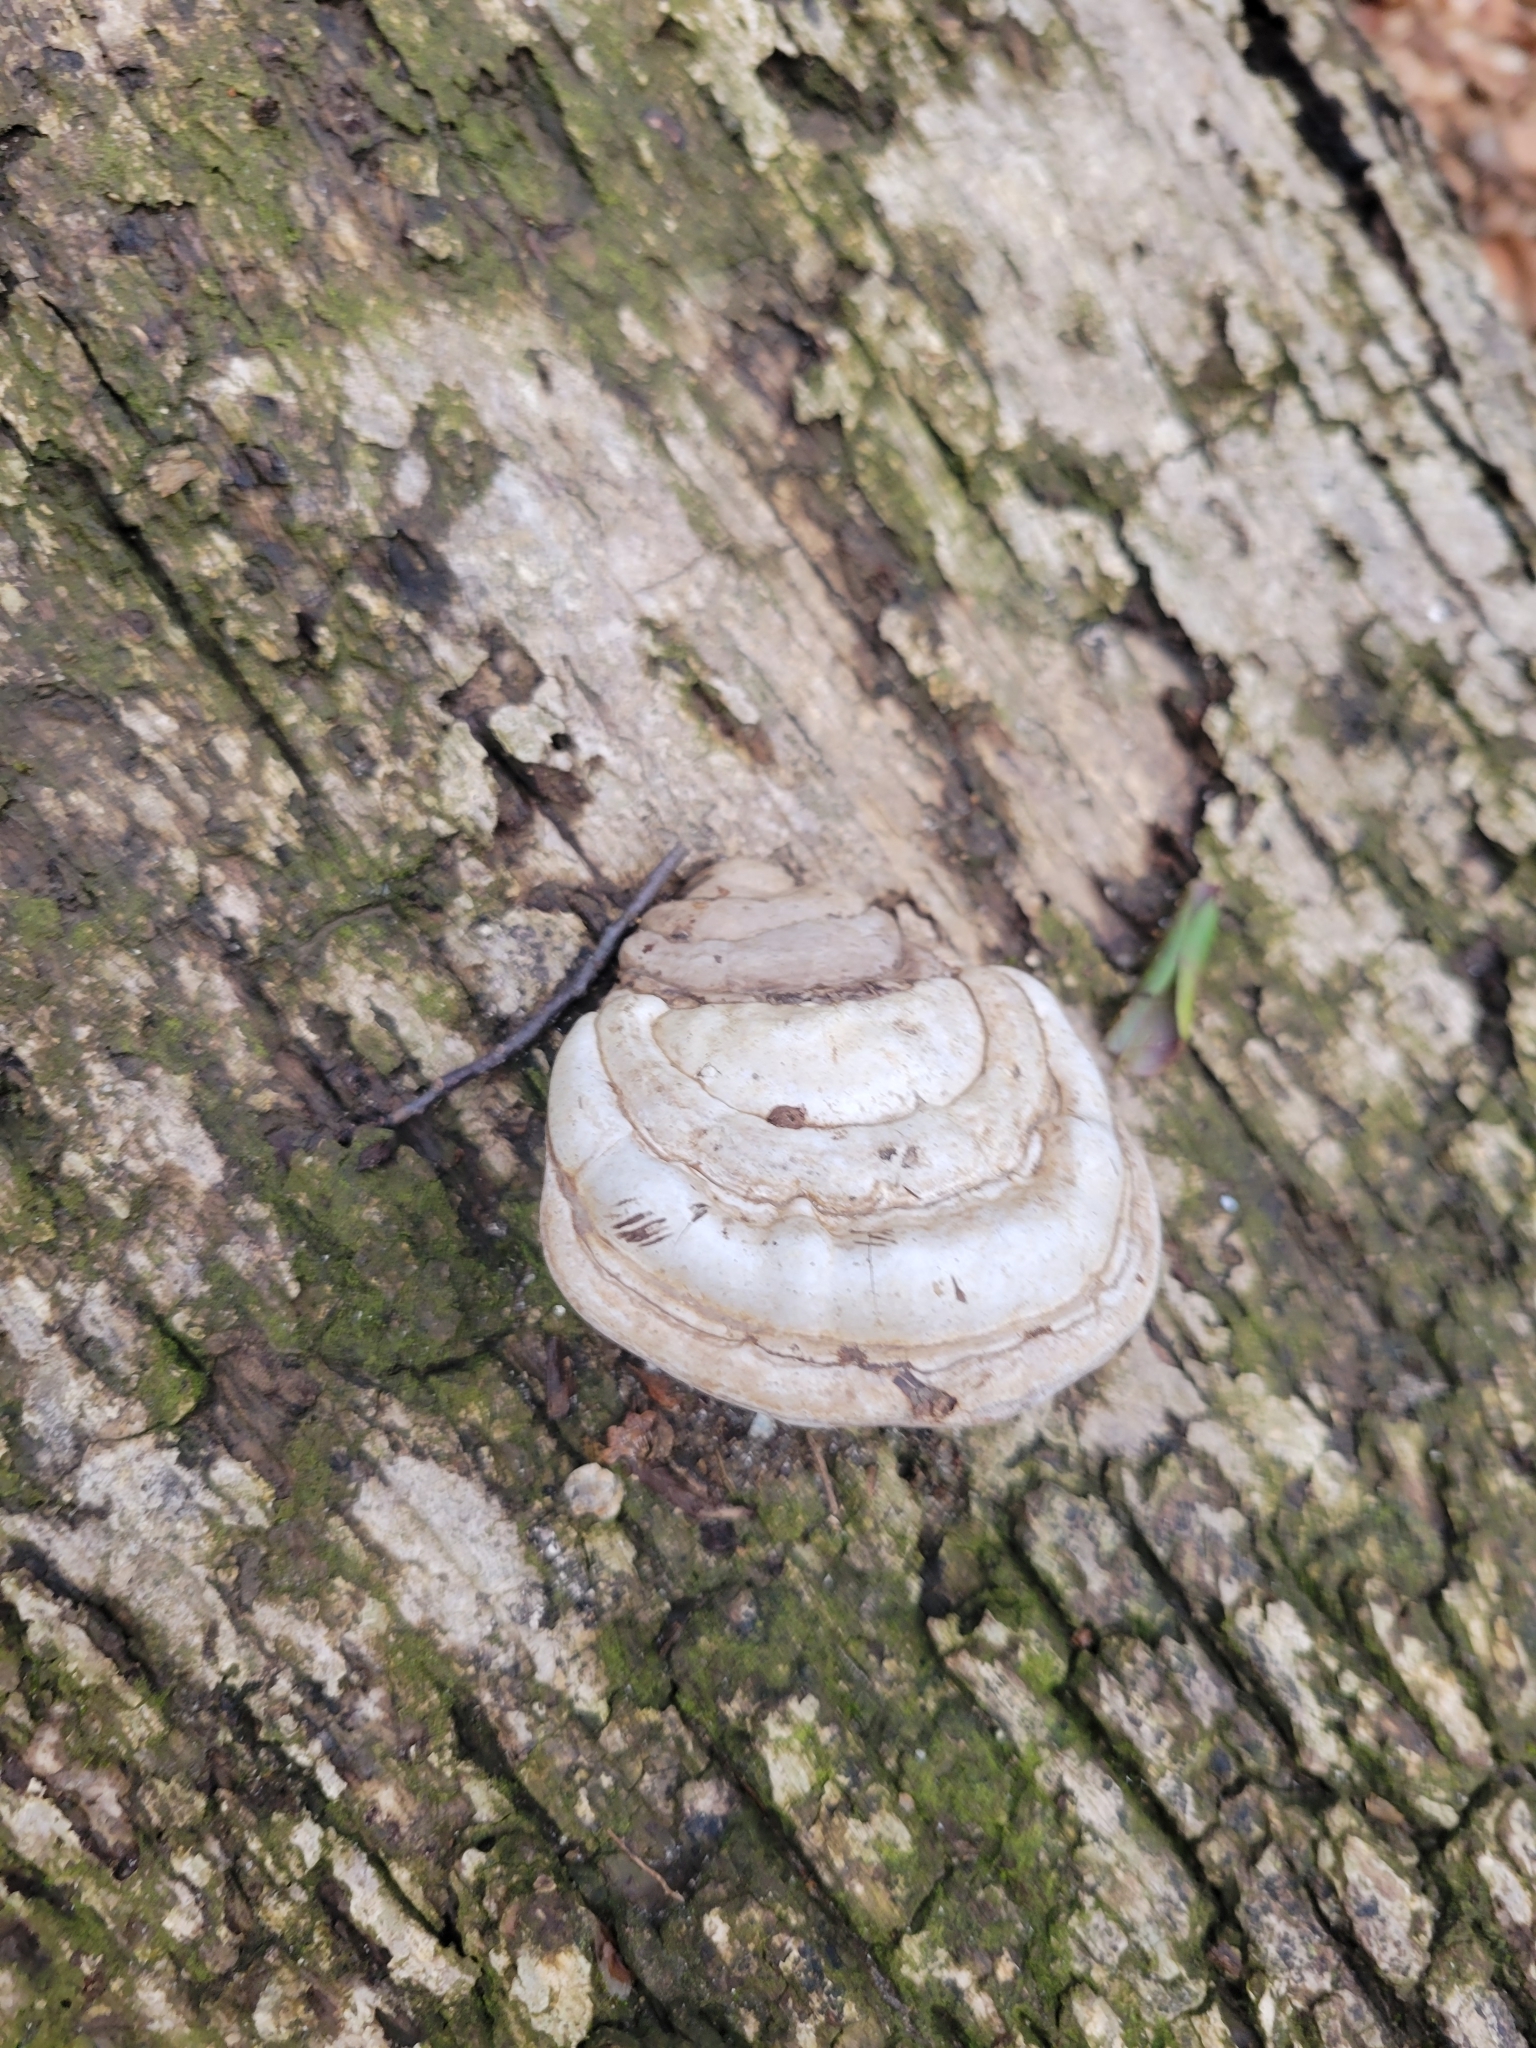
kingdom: Fungi
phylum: Basidiomycota
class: Agaricomycetes
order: Polyporales
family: Polyporaceae
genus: Ganoderma
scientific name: Ganoderma applanatum
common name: Artist's bracket
